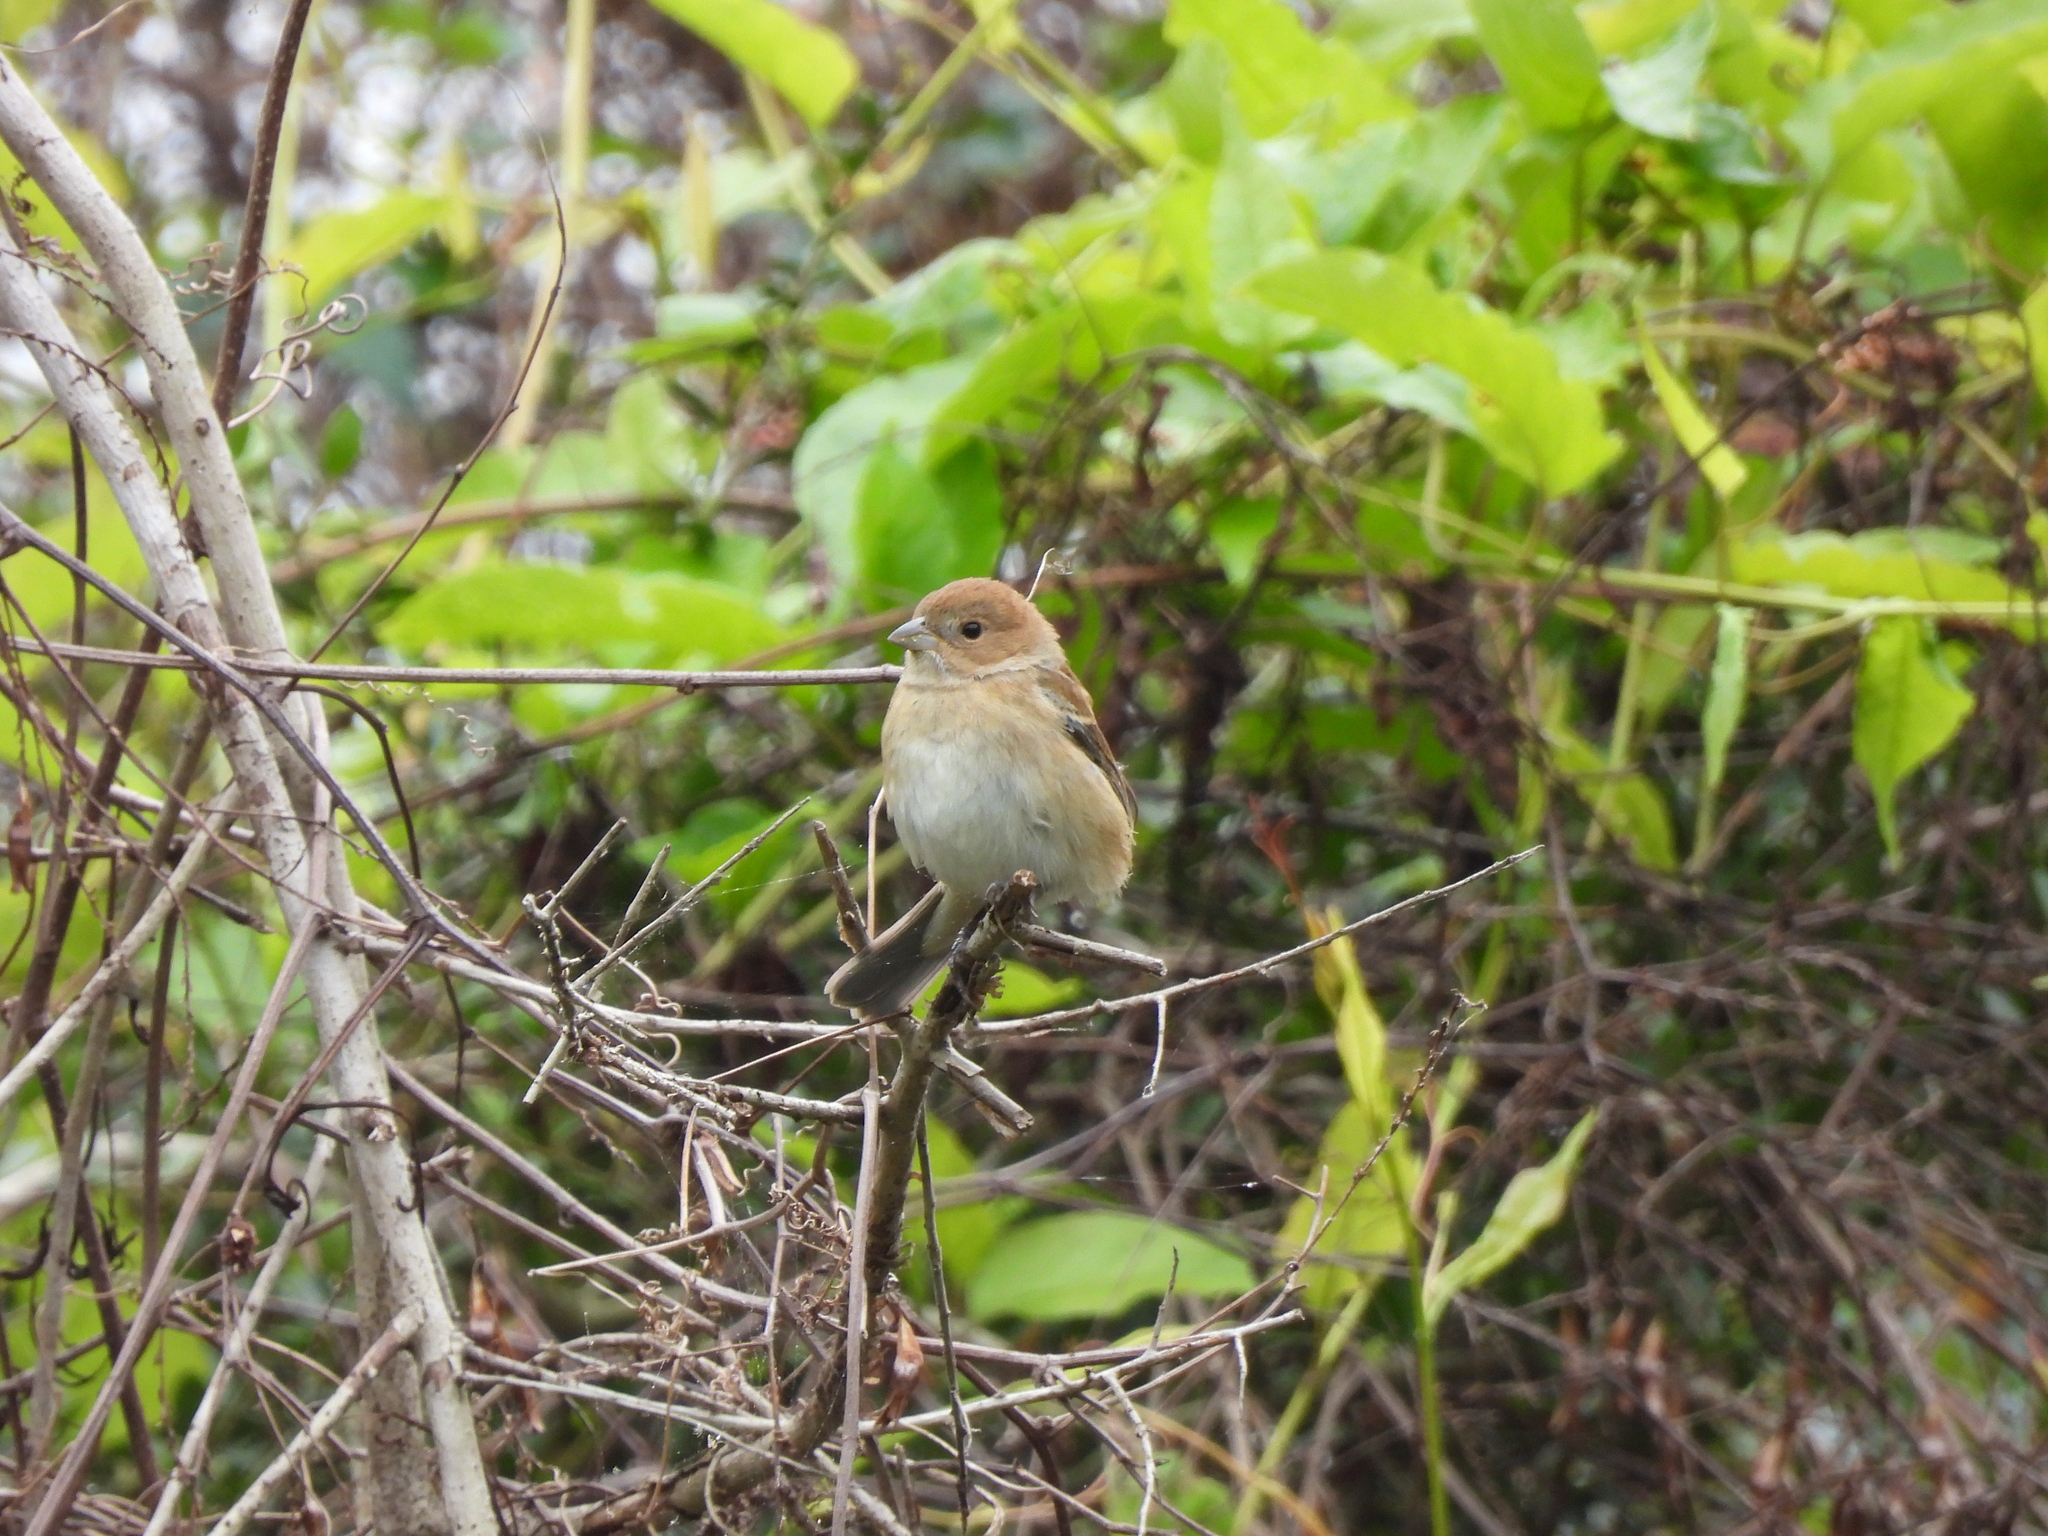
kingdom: Animalia
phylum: Chordata
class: Aves
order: Passeriformes
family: Cardinalidae
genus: Passerina
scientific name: Passerina cyanea
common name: Indigo bunting
